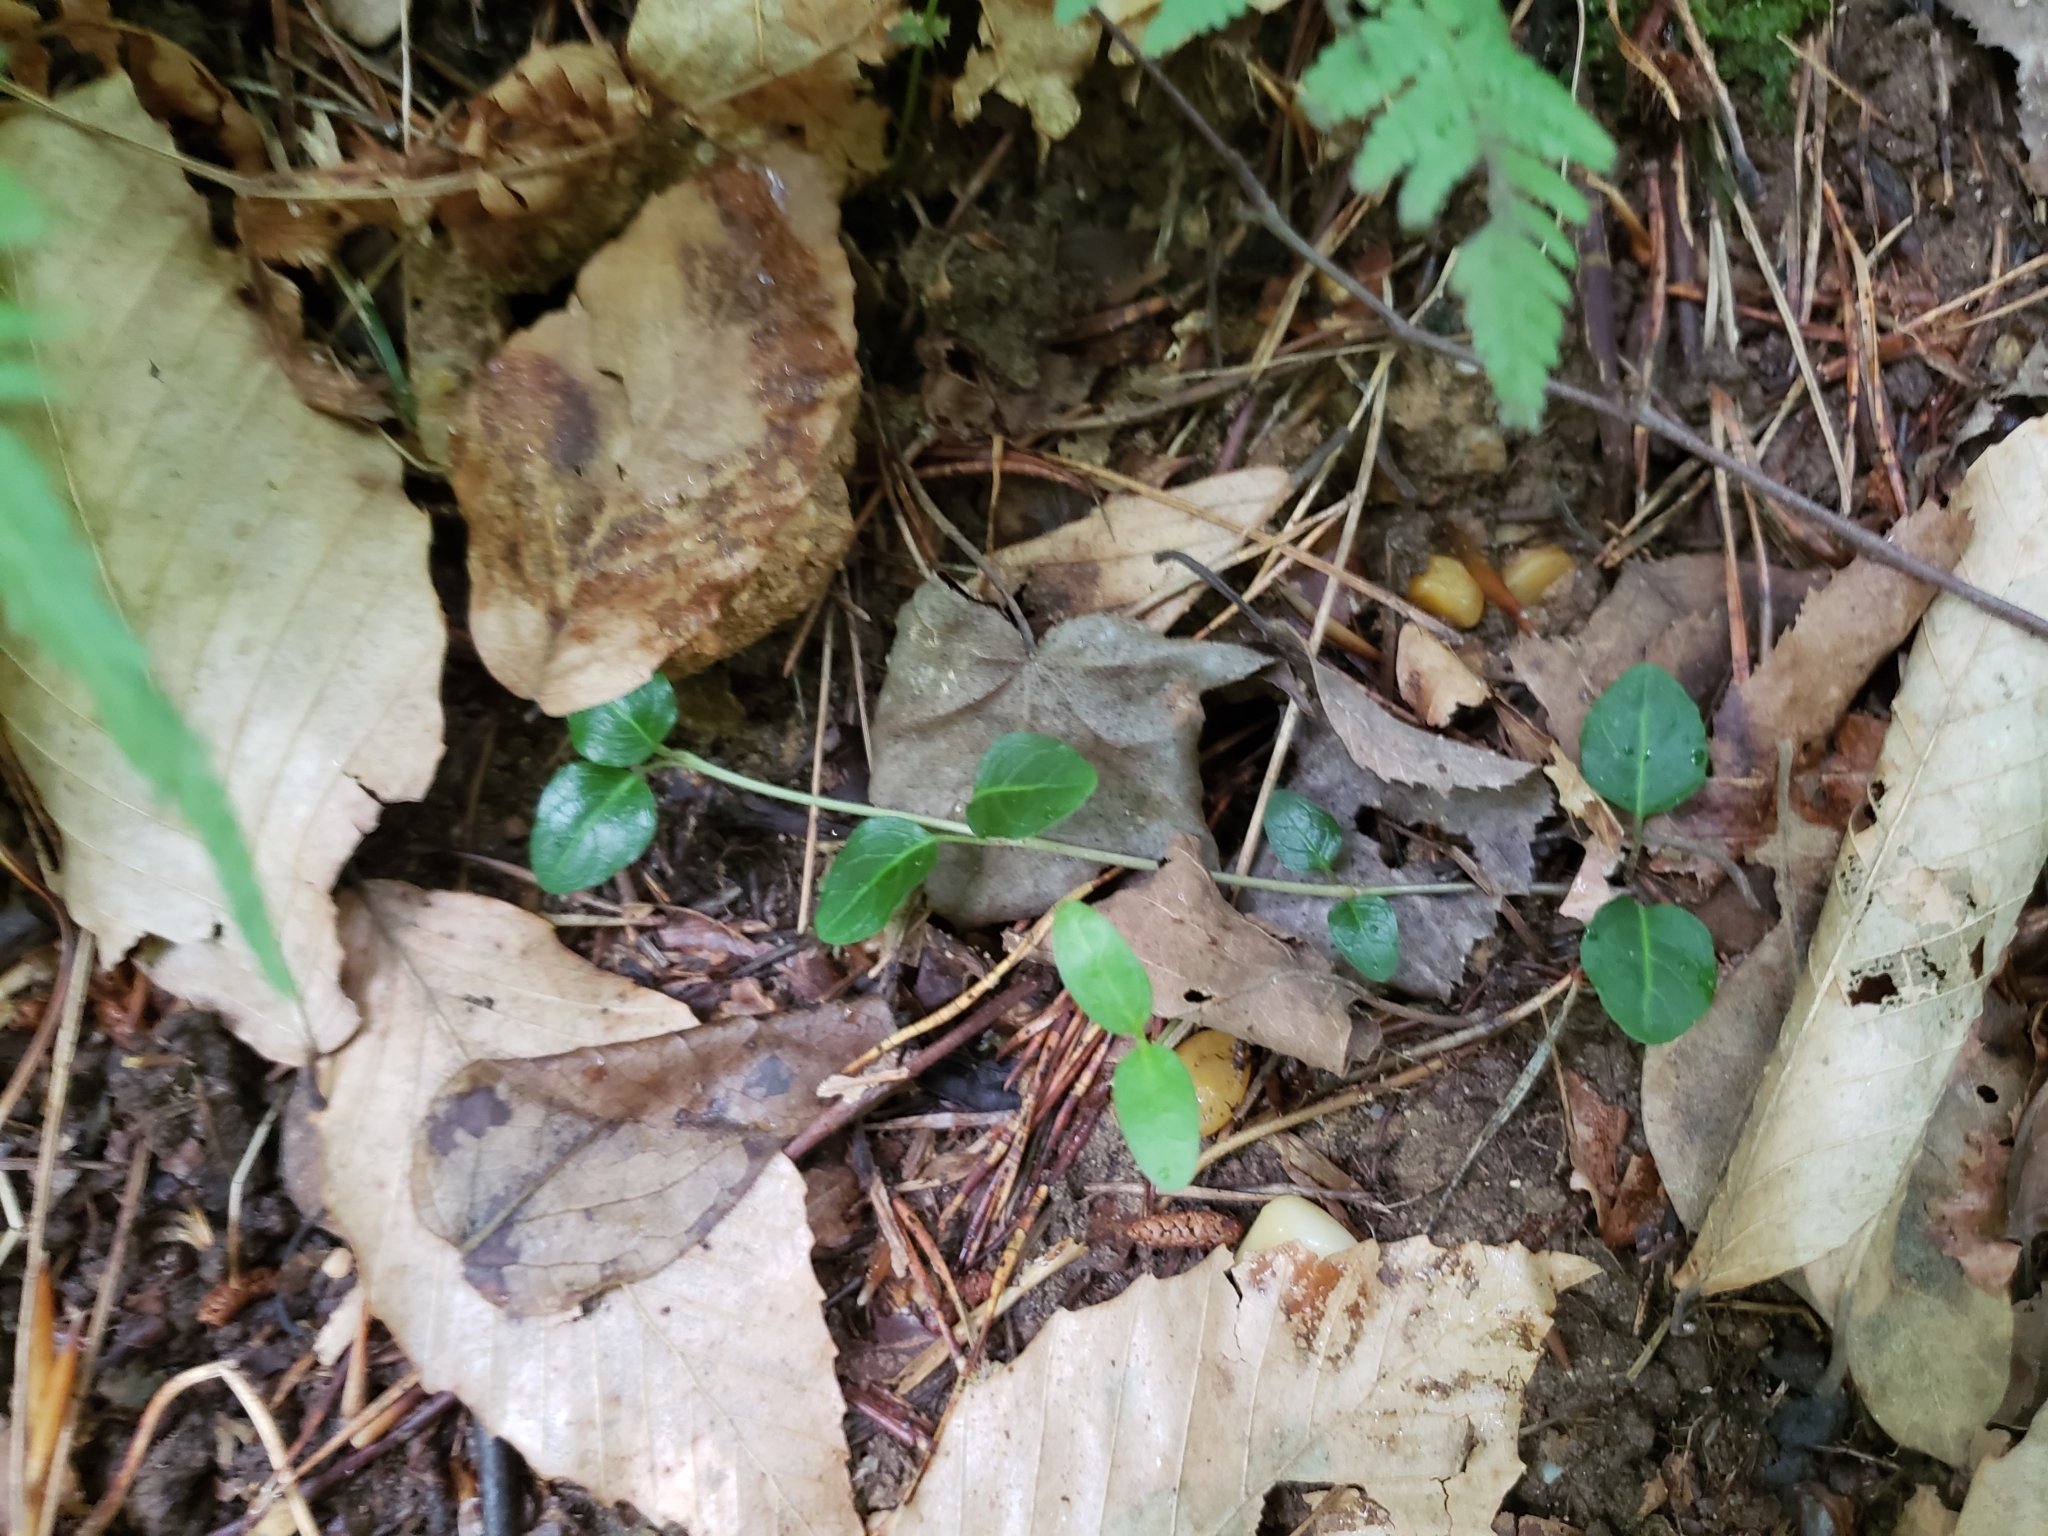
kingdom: Plantae
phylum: Tracheophyta
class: Magnoliopsida
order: Gentianales
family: Rubiaceae
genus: Mitchella
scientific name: Mitchella repens
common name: Partridge-berry
